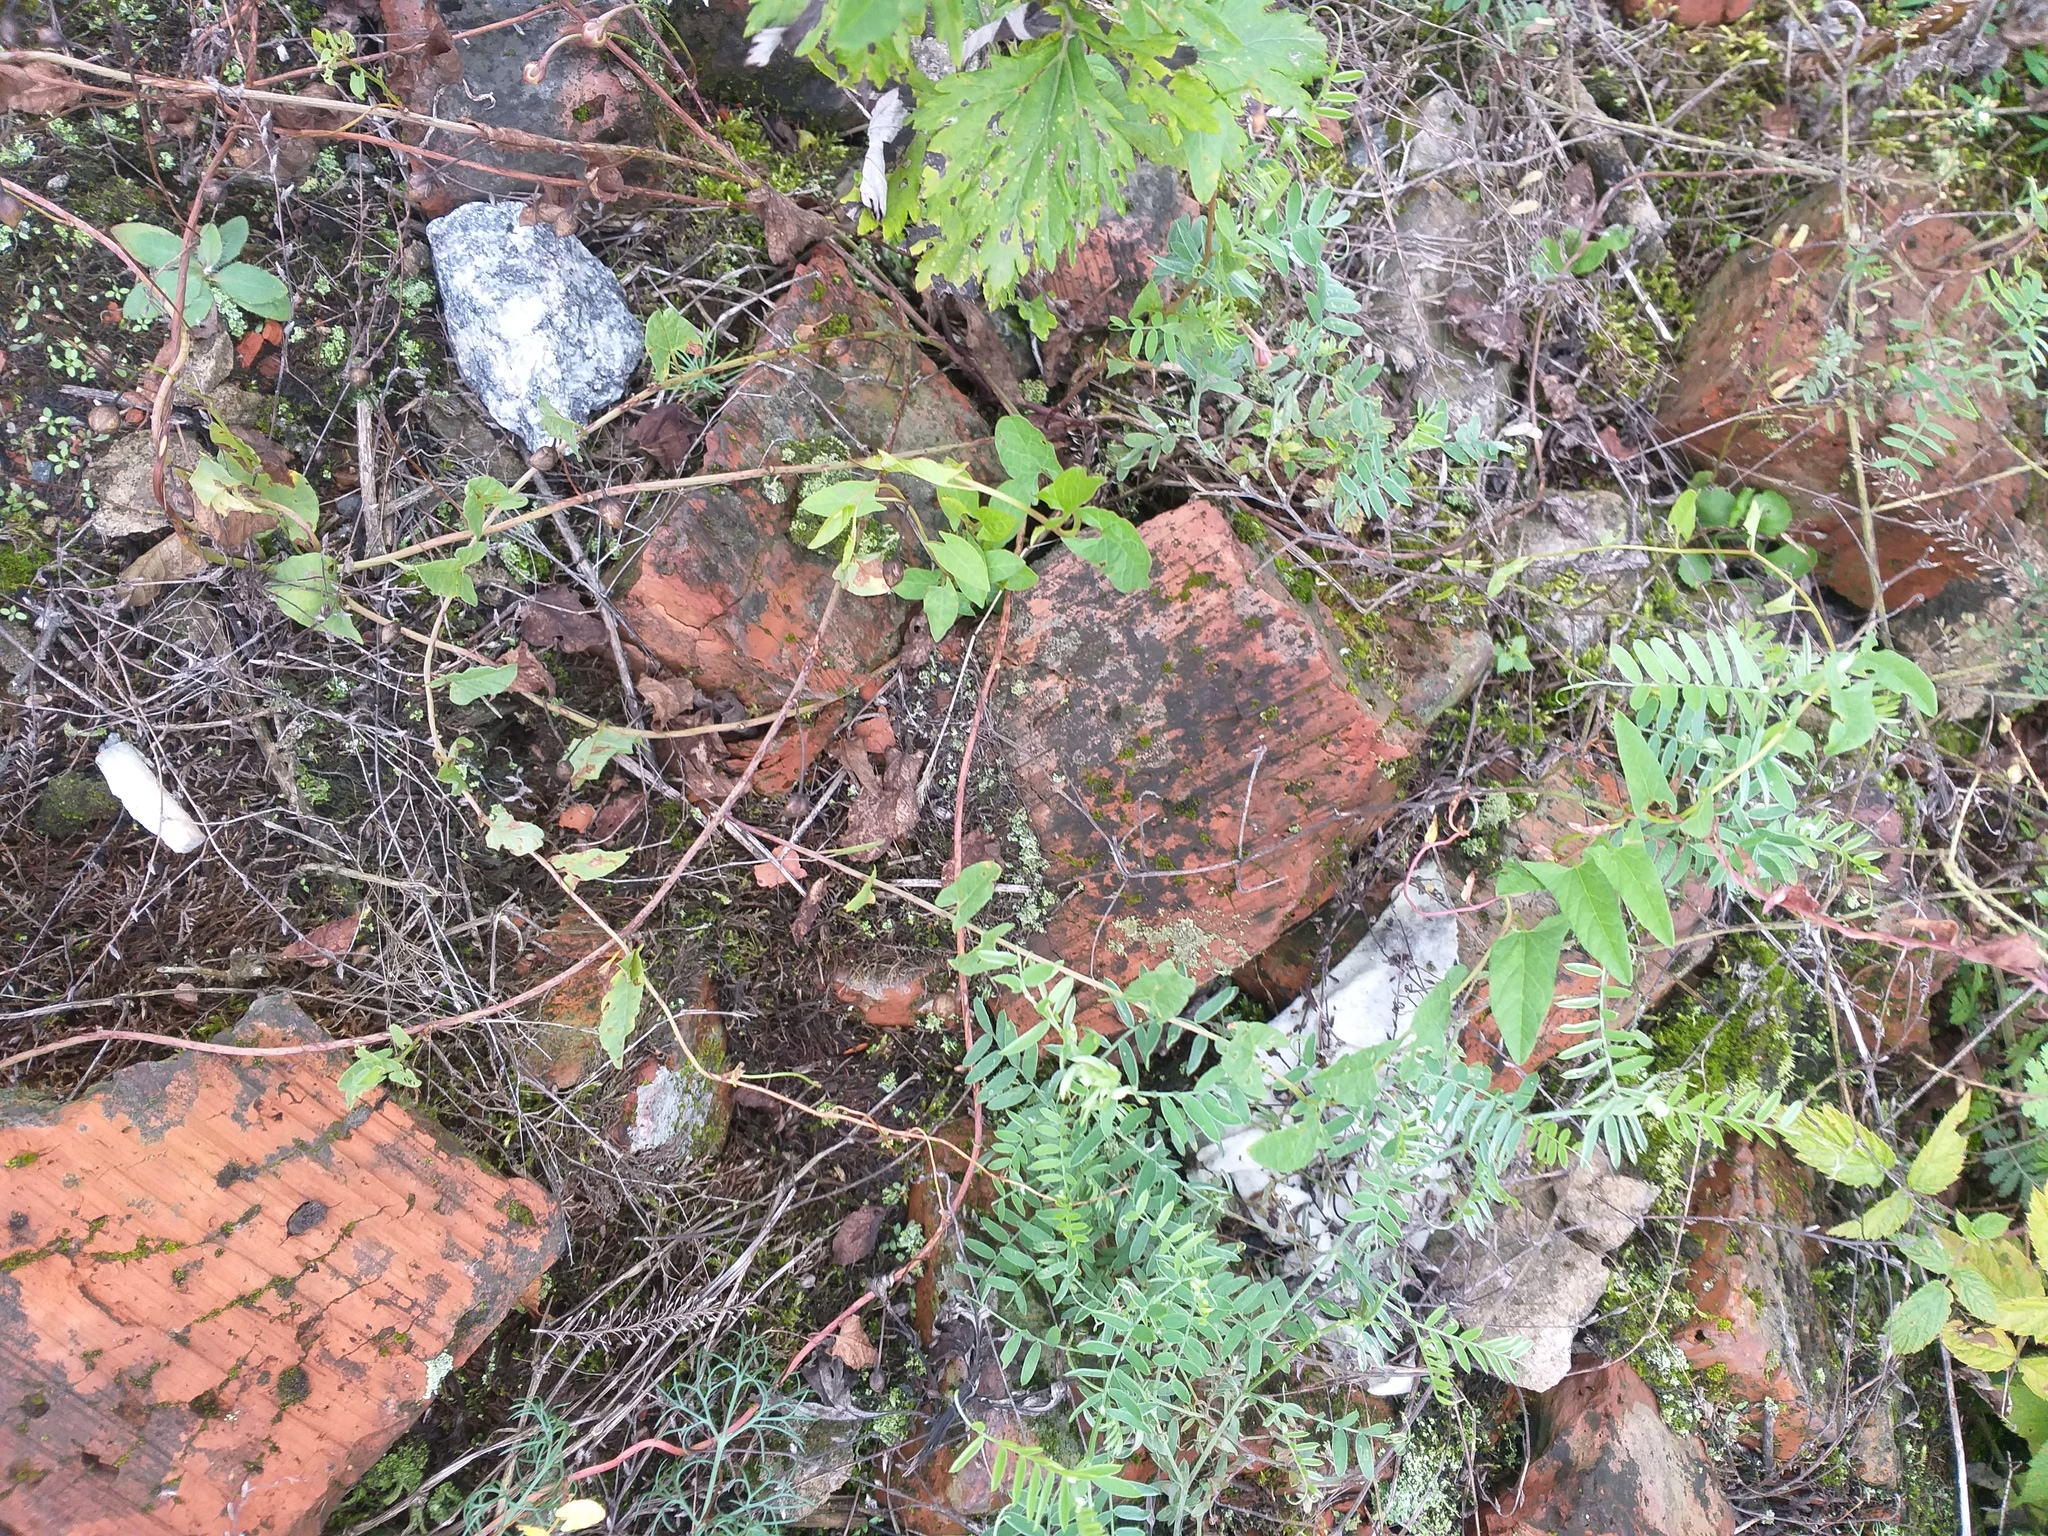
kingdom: Plantae
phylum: Tracheophyta
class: Magnoliopsida
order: Solanales
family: Convolvulaceae
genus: Convolvulus
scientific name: Convolvulus arvensis
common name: Field bindweed
